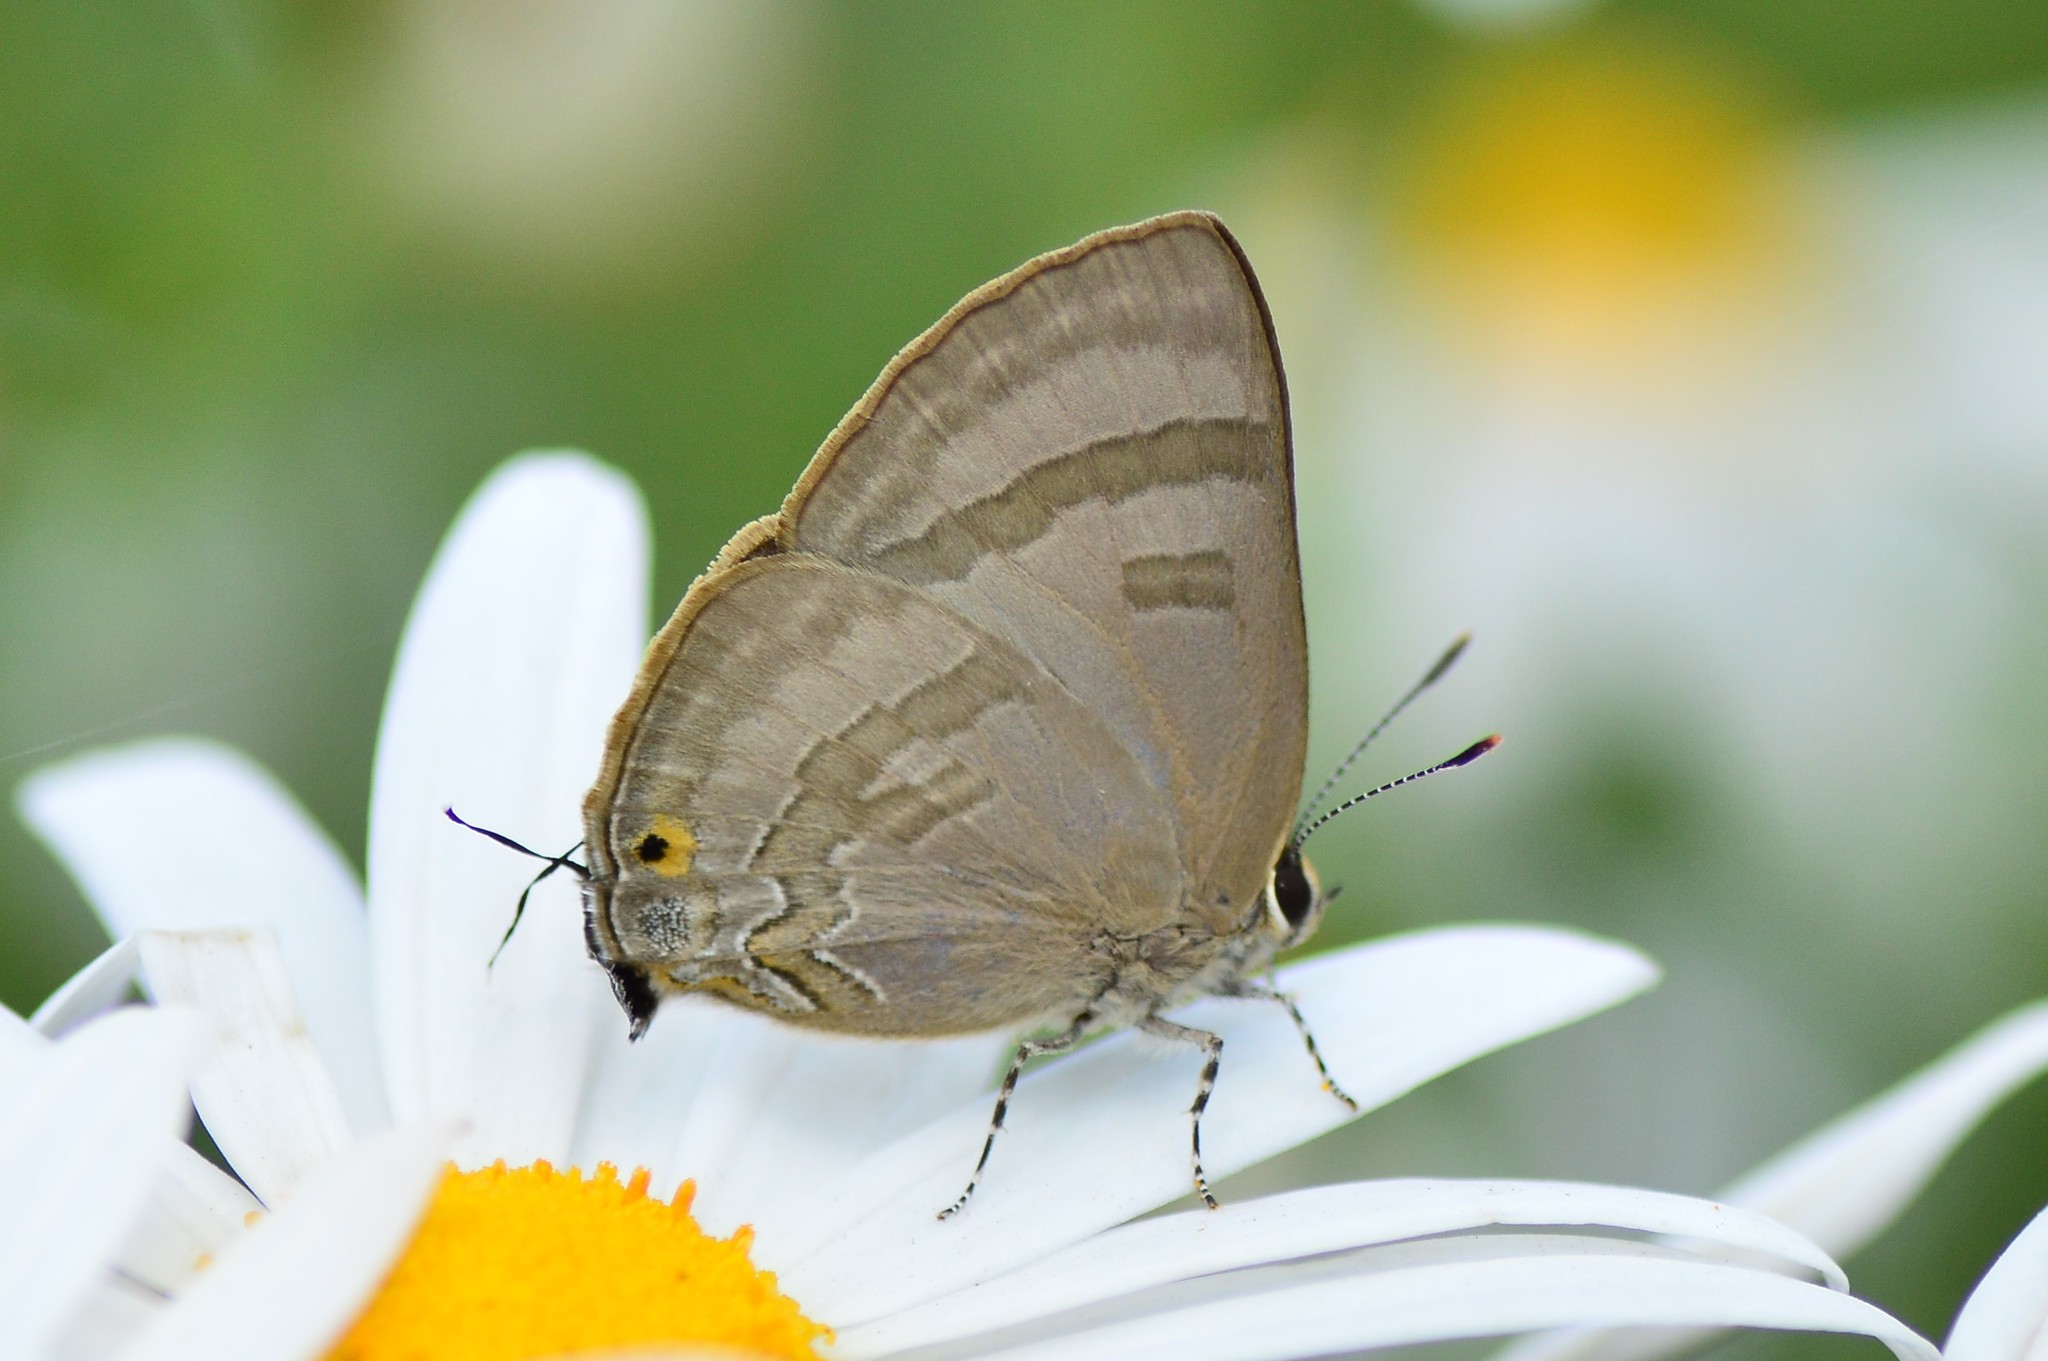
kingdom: Animalia
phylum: Arthropoda
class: Insecta
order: Lepidoptera
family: Lycaenidae
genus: Rapala
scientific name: Rapala varuna
